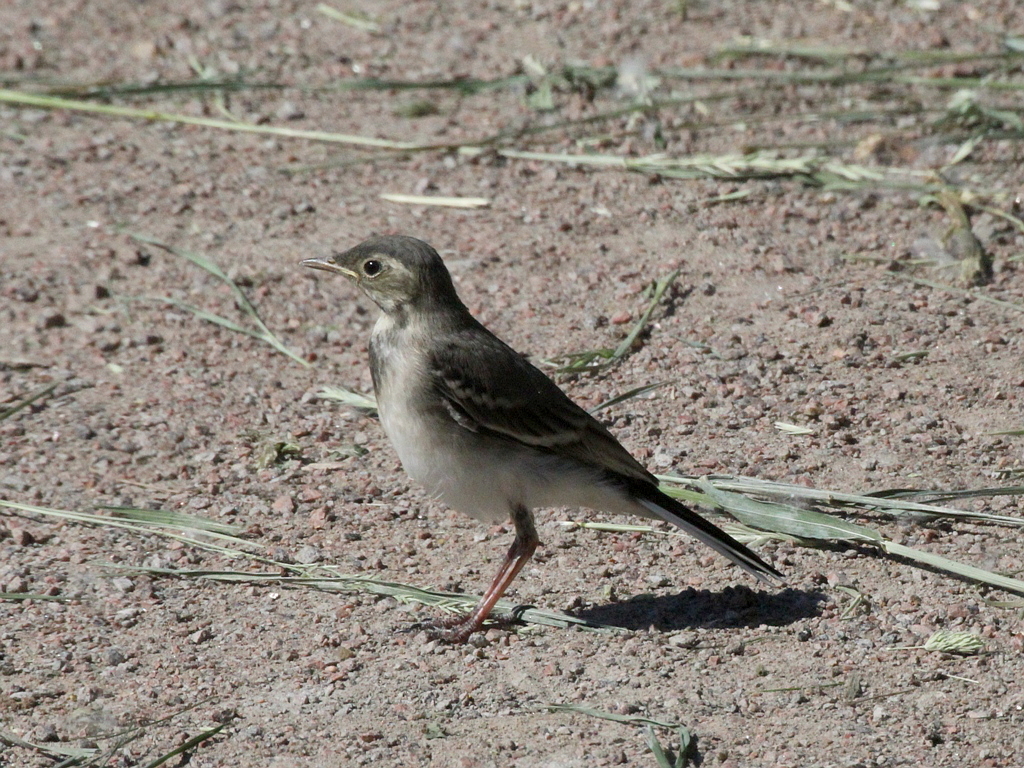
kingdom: Animalia
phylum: Chordata
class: Aves
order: Passeriformes
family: Motacillidae
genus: Motacilla
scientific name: Motacilla alba
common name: White wagtail
